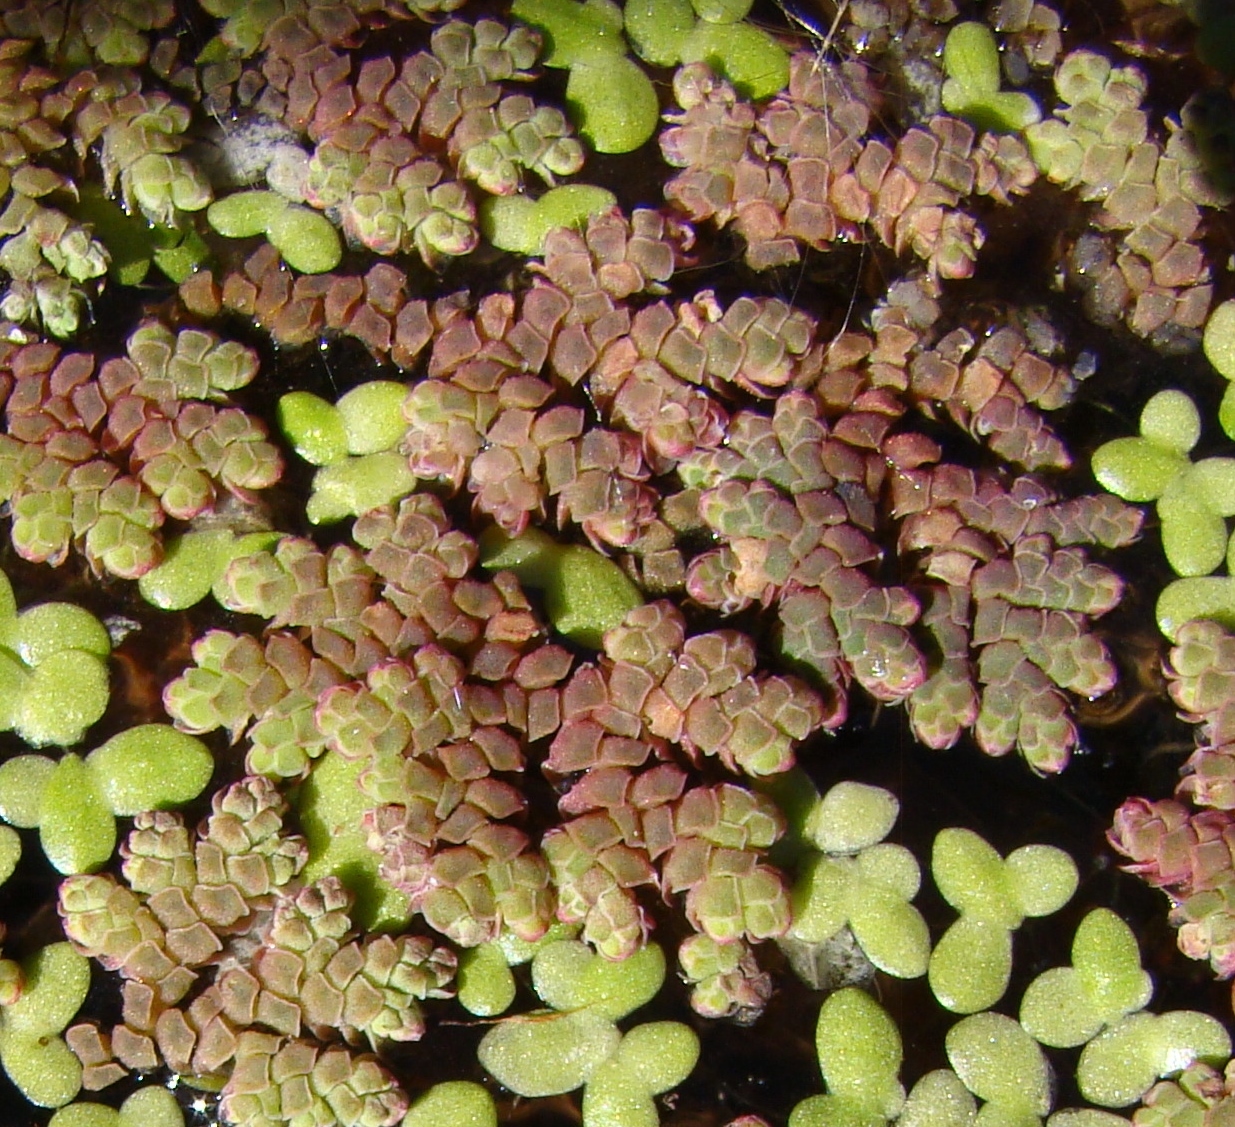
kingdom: Plantae
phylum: Tracheophyta
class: Polypodiopsida
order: Salviniales
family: Salviniaceae
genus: Azolla
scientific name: Azolla rubra
